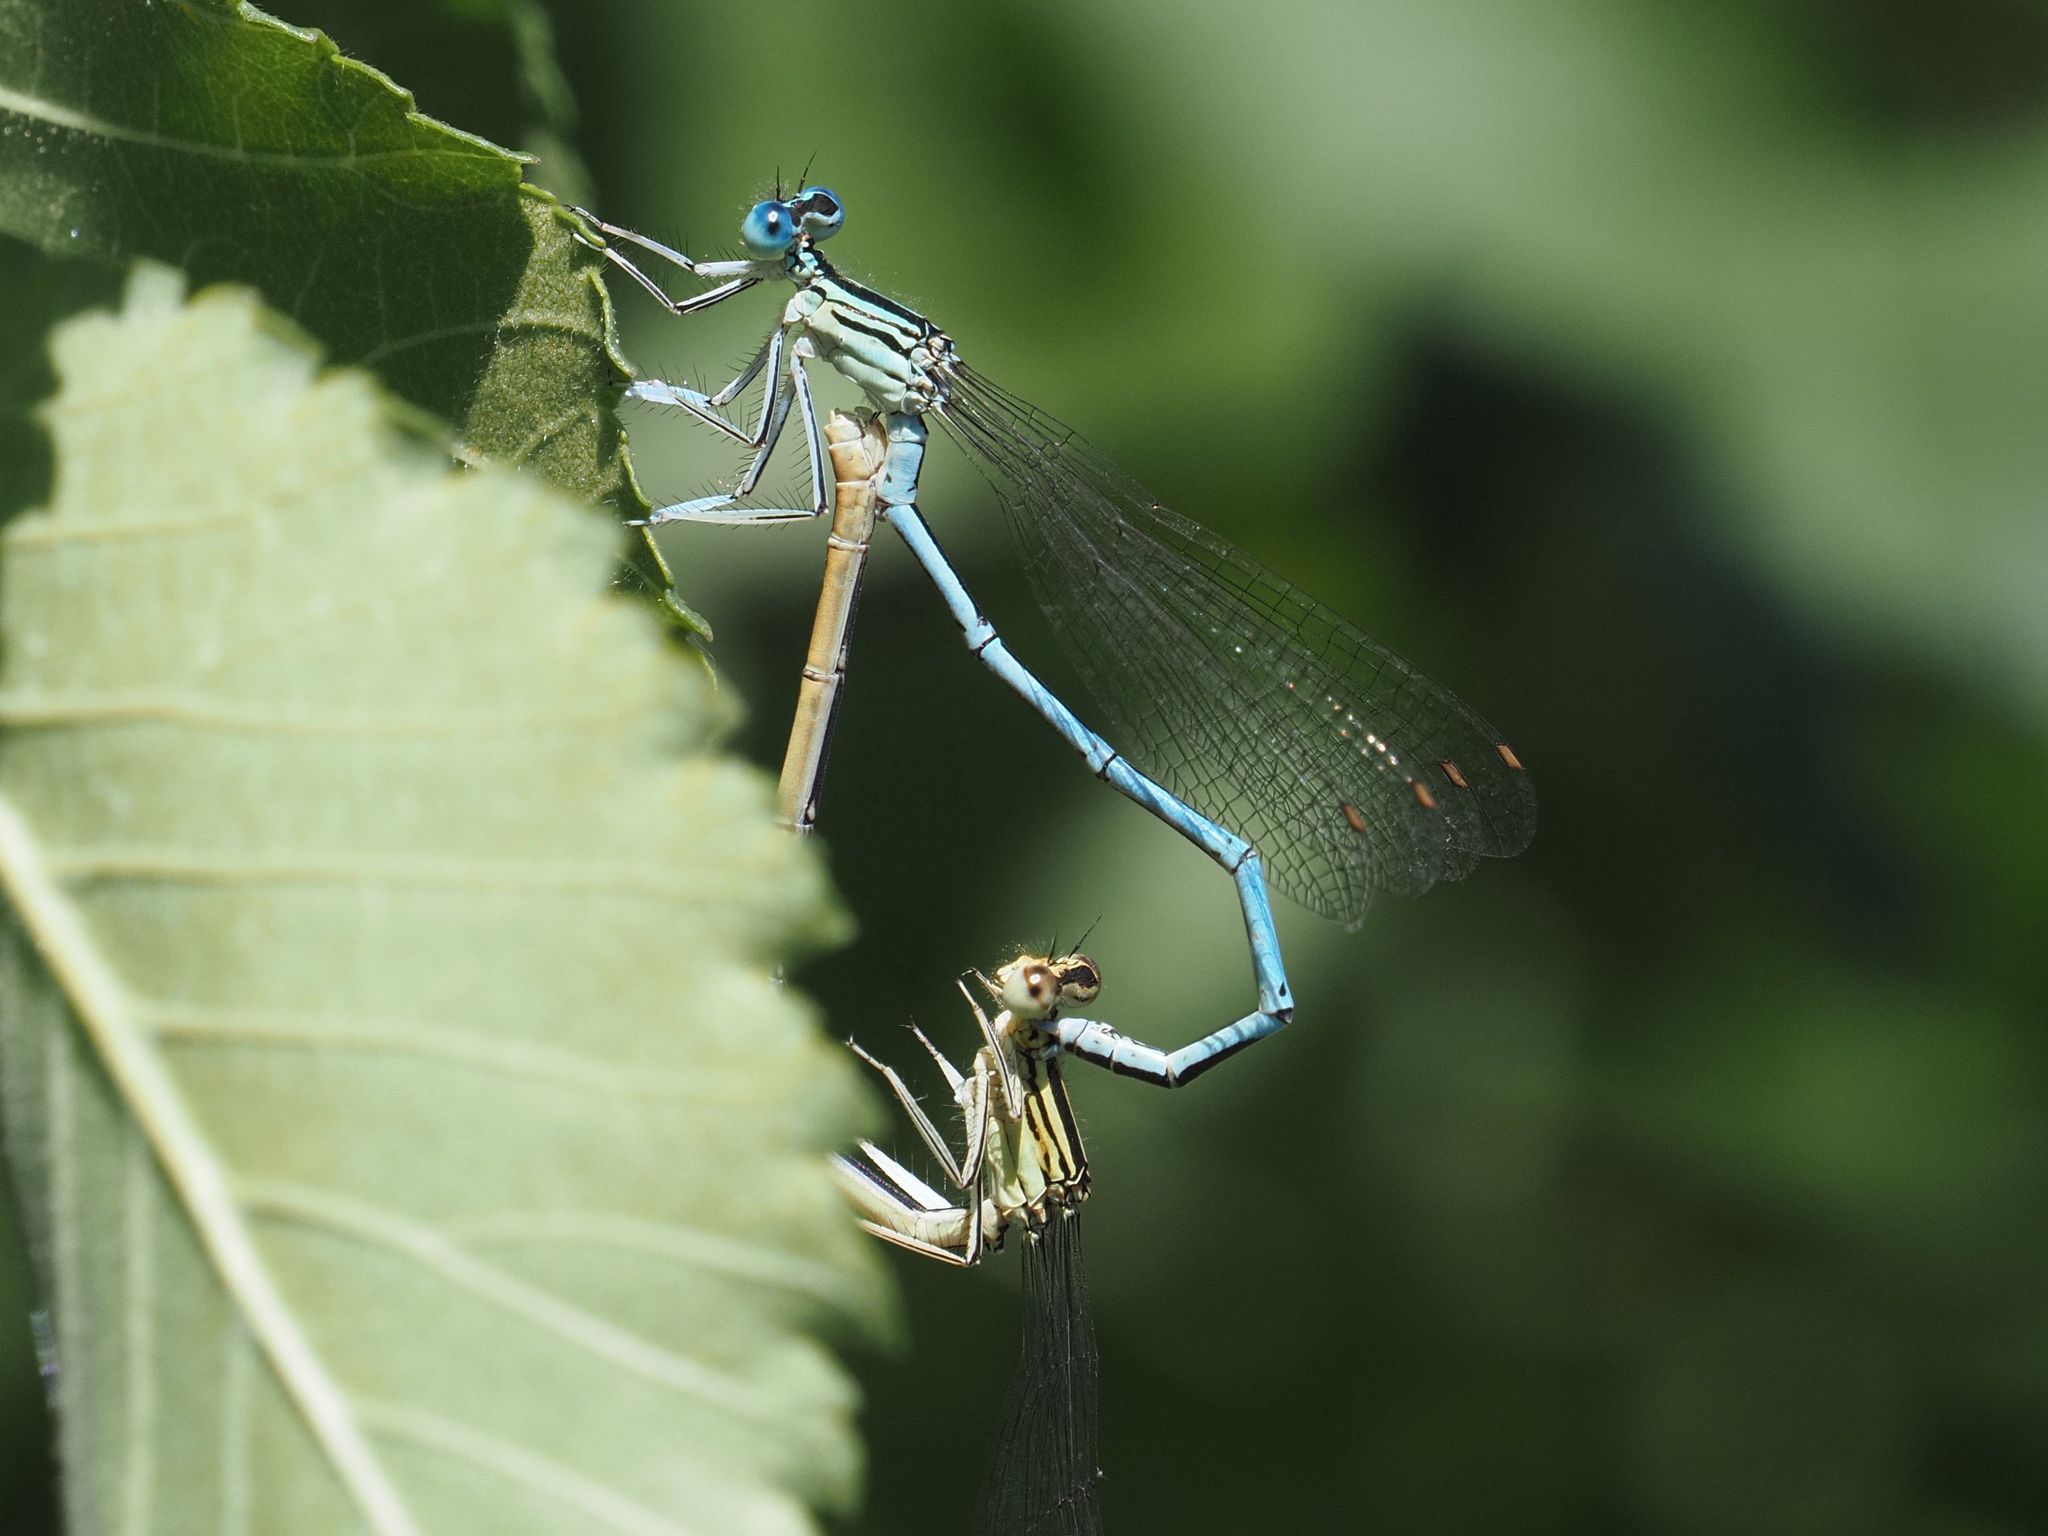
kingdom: Animalia
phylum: Arthropoda
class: Insecta
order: Odonata
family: Platycnemididae
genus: Platycnemis
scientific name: Platycnemis pennipes
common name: White-legged damselfly
